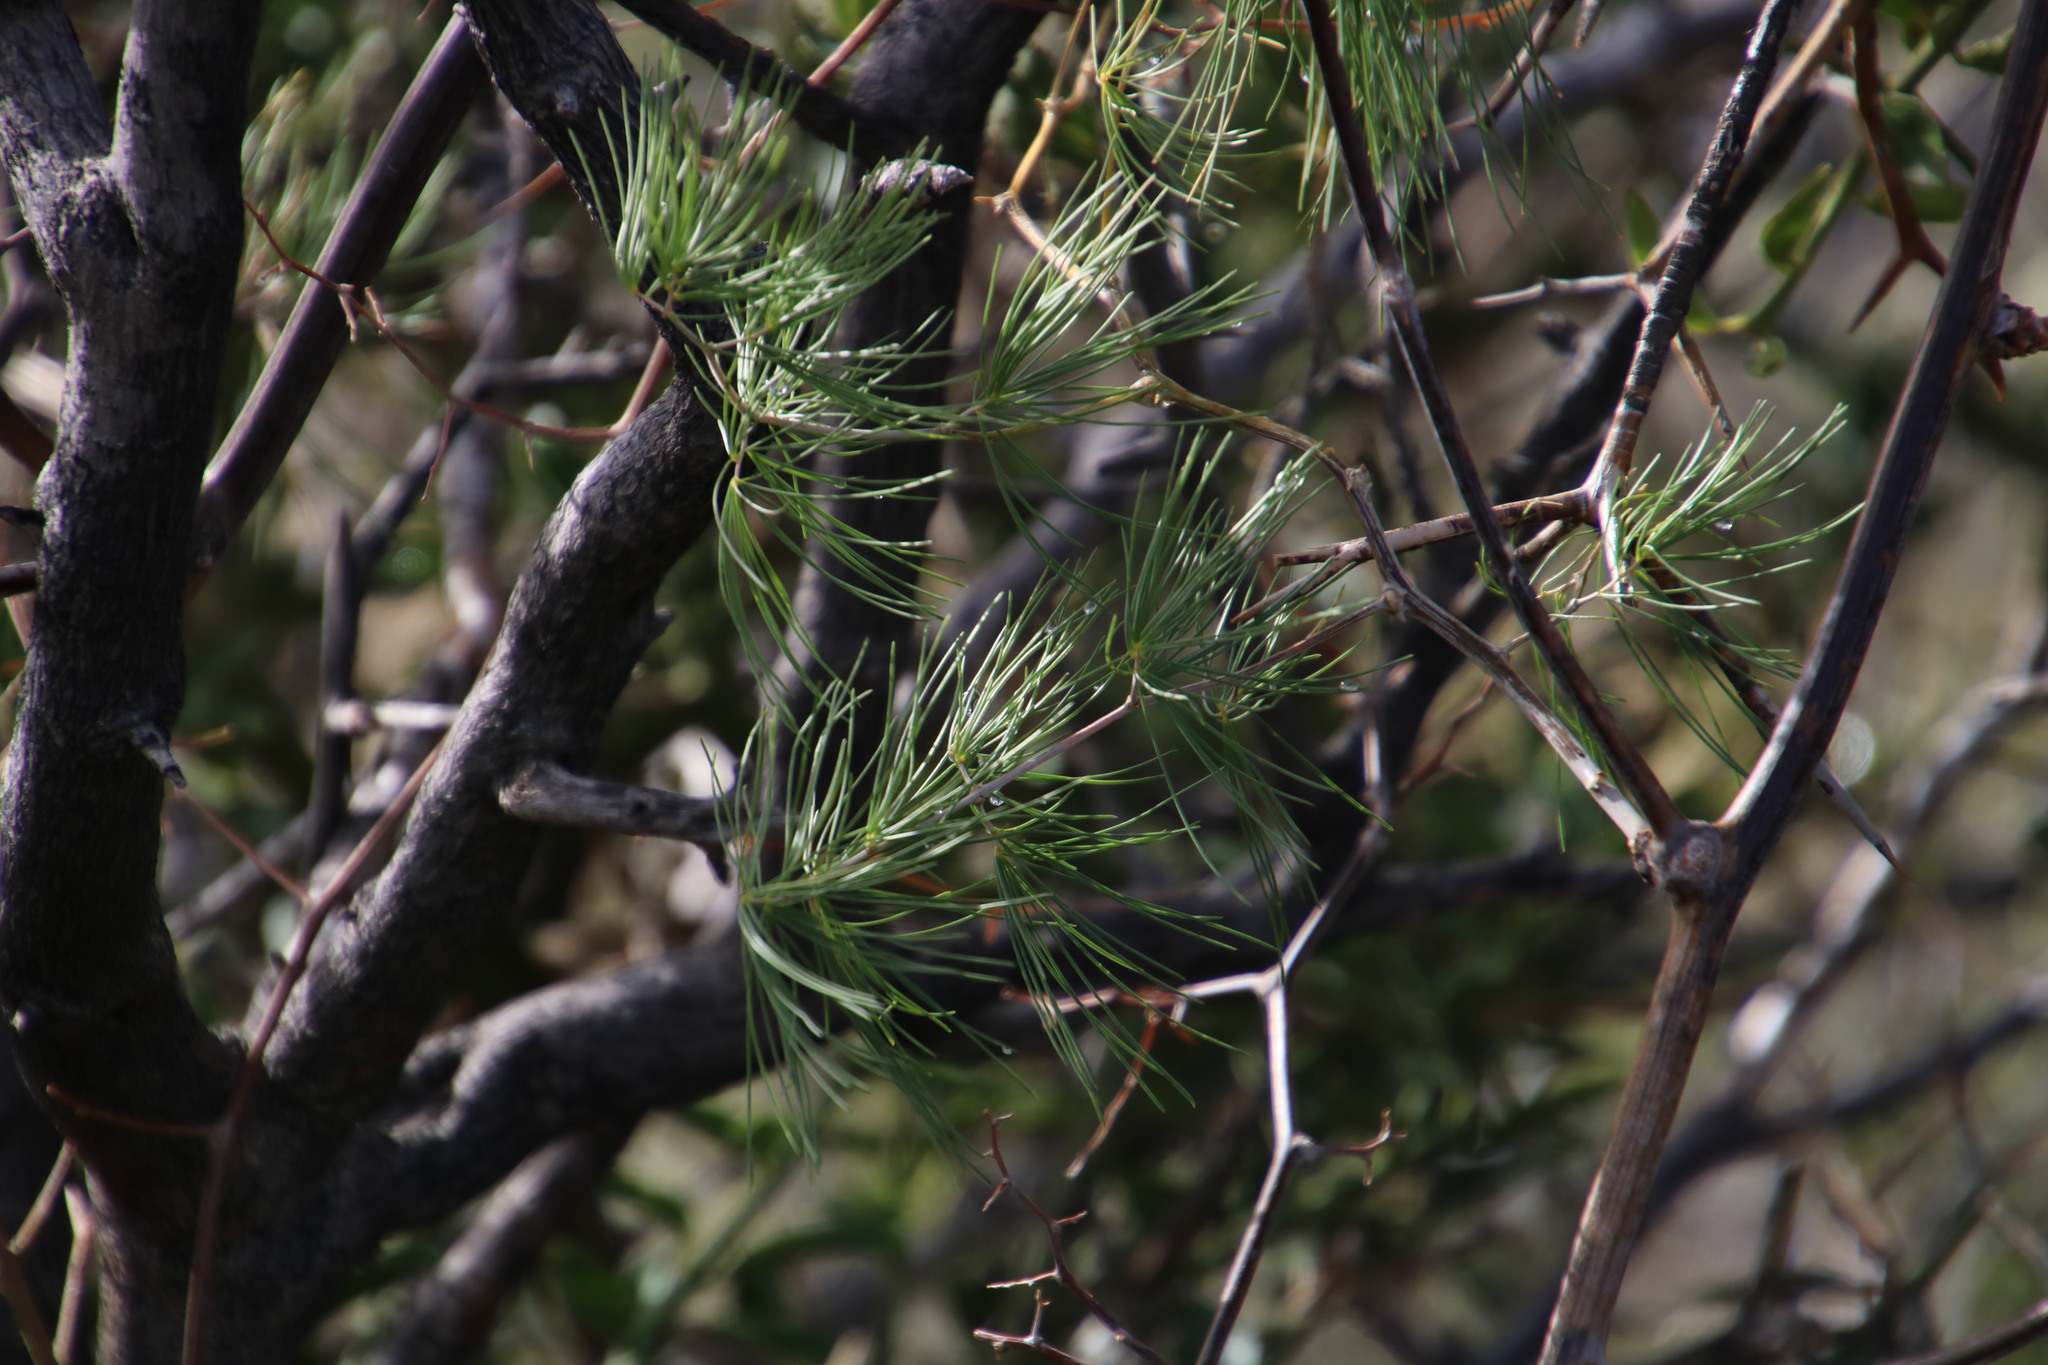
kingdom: Plantae
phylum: Tracheophyta
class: Liliopsida
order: Asparagales
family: Asparagaceae
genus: Asparagus
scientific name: Asparagus retrofractus
